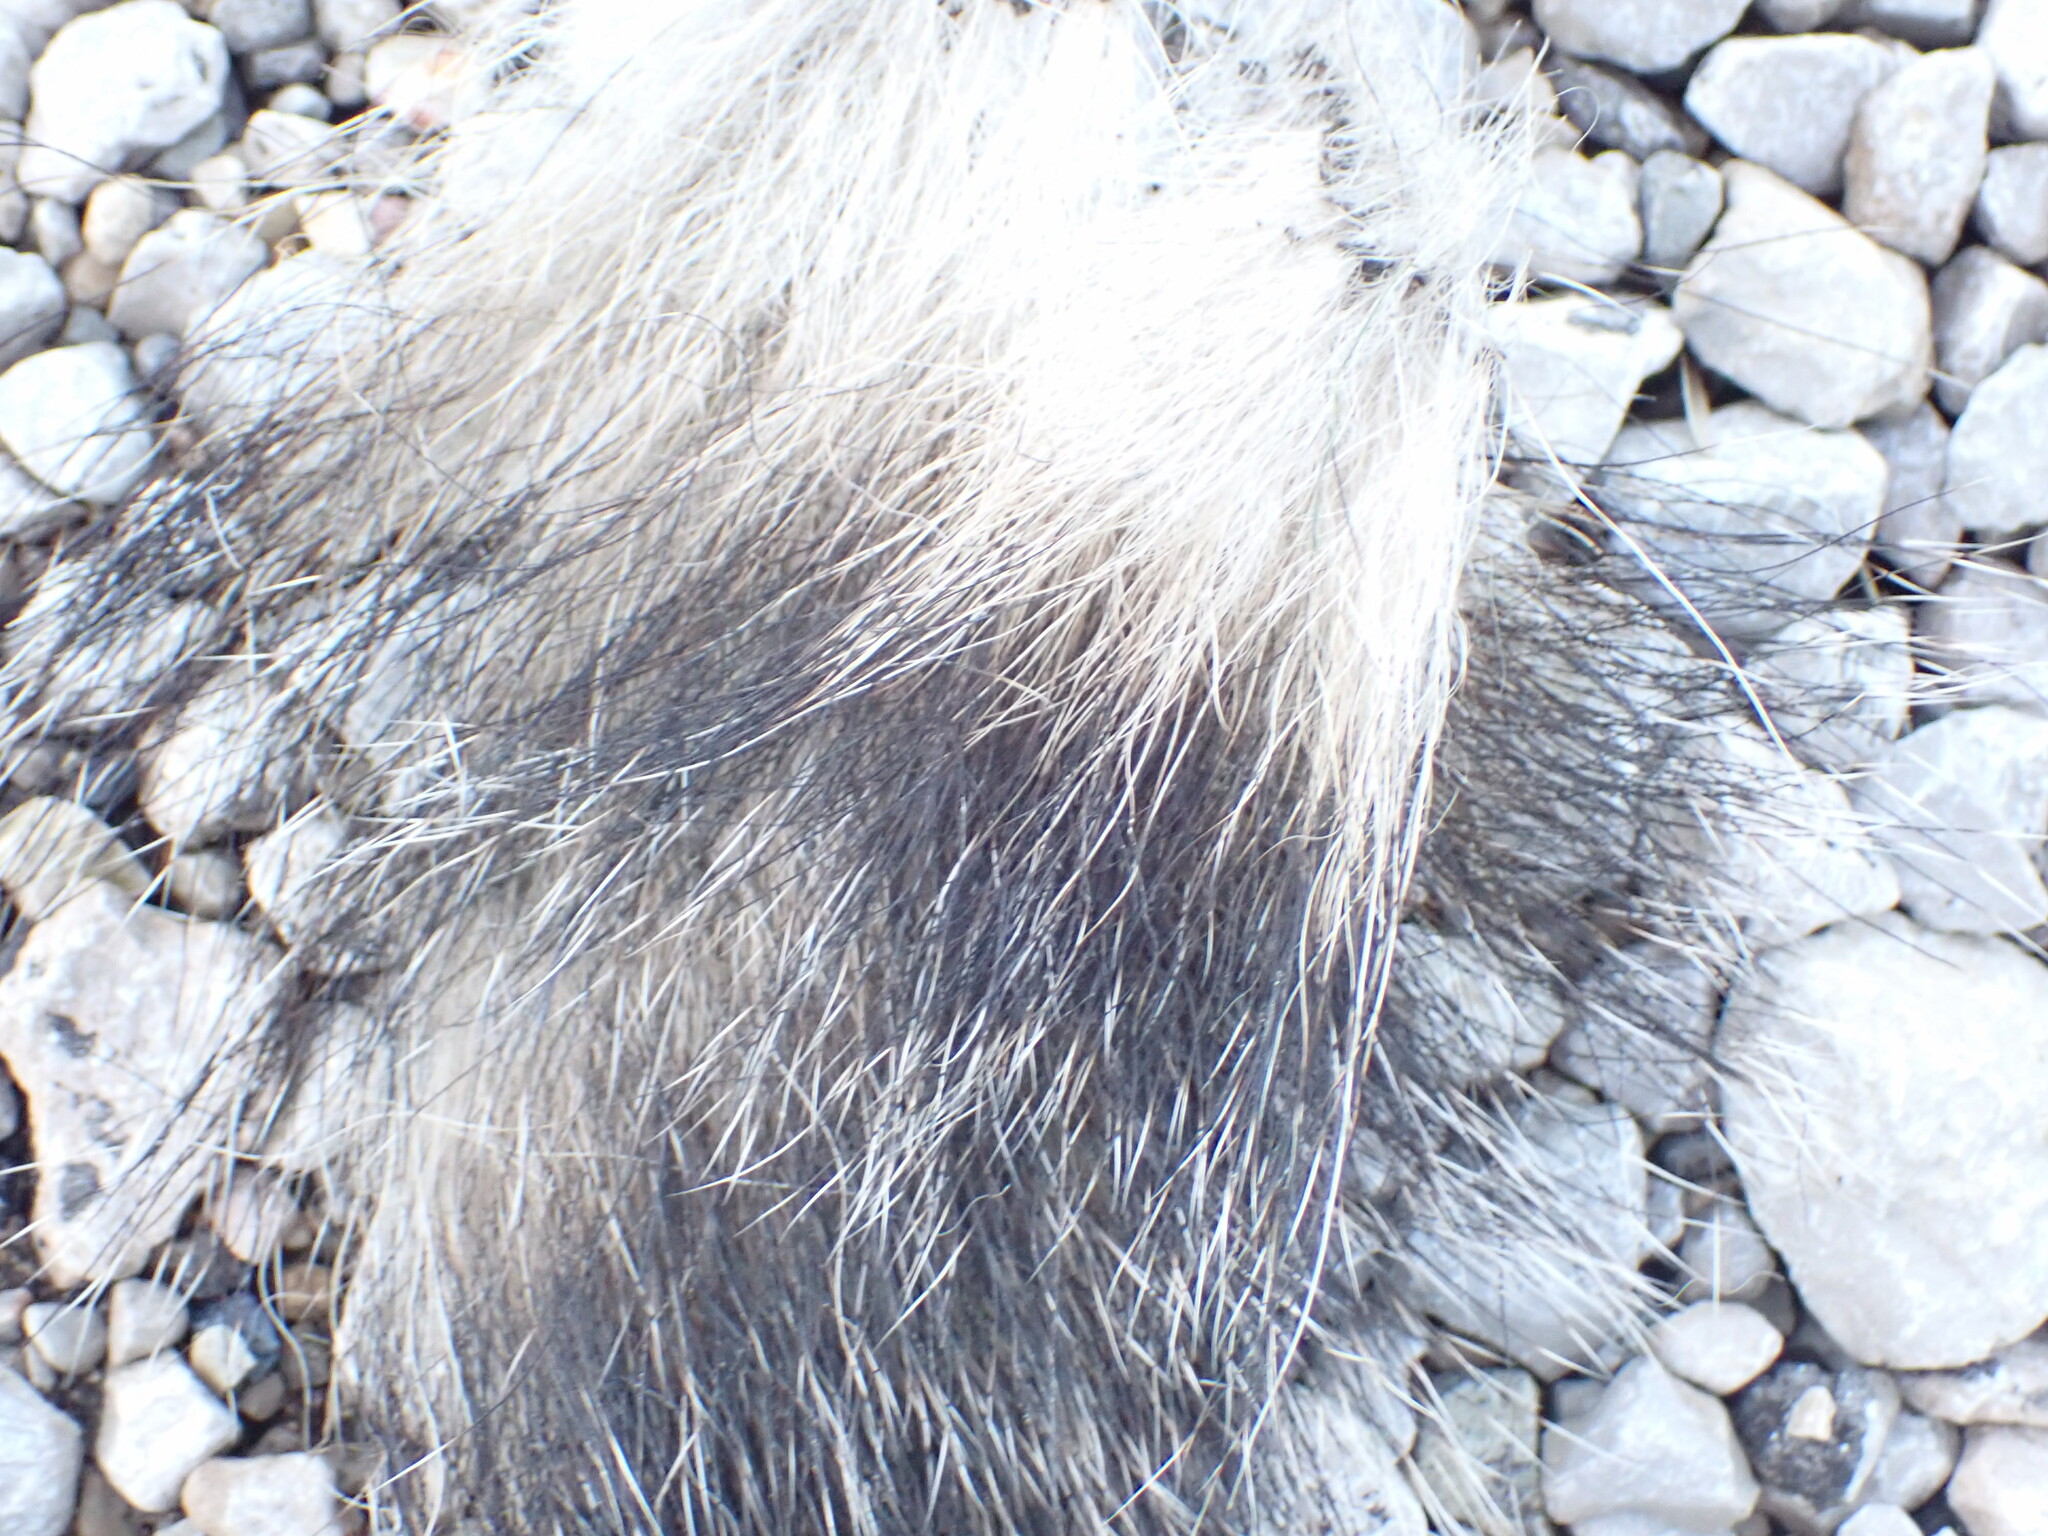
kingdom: Animalia
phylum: Chordata
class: Mammalia
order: Carnivora
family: Mustelidae
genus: Meles
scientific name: Meles meles
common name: Eurasian badger
